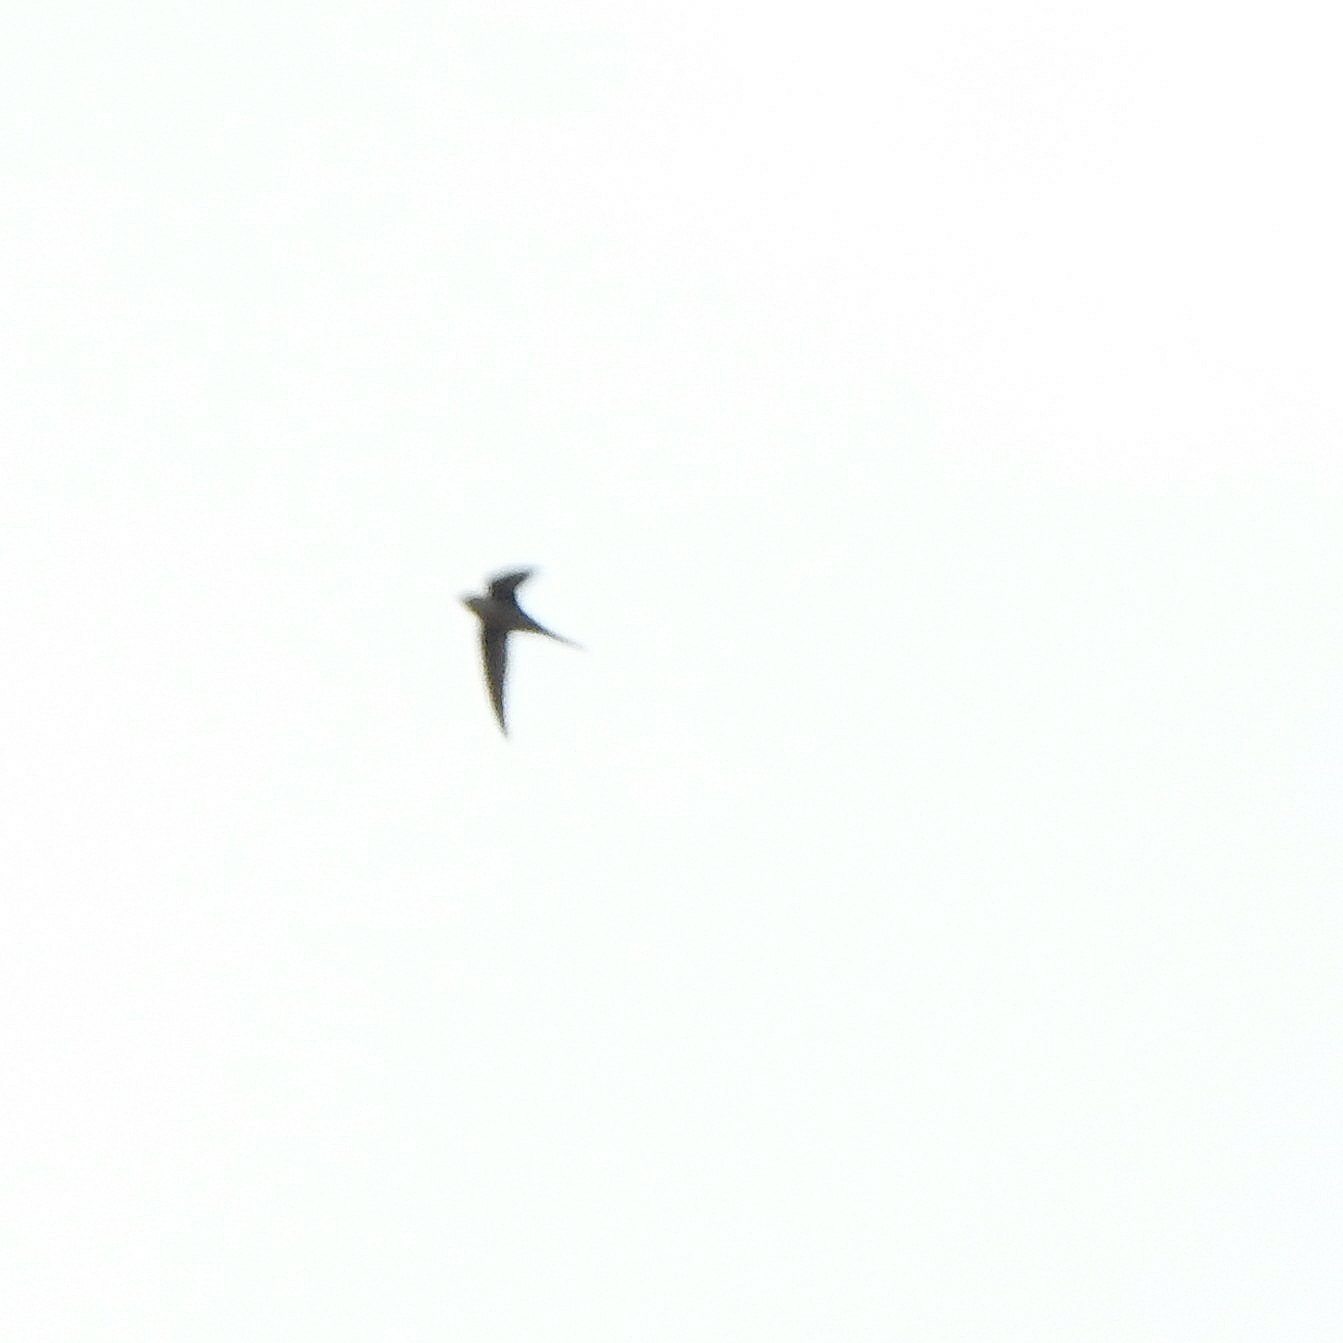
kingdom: Animalia
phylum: Chordata
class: Aves
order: Apodiformes
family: Apodidae
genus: Cypsiurus
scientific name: Cypsiurus balasiensis
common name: Asian palm swift
